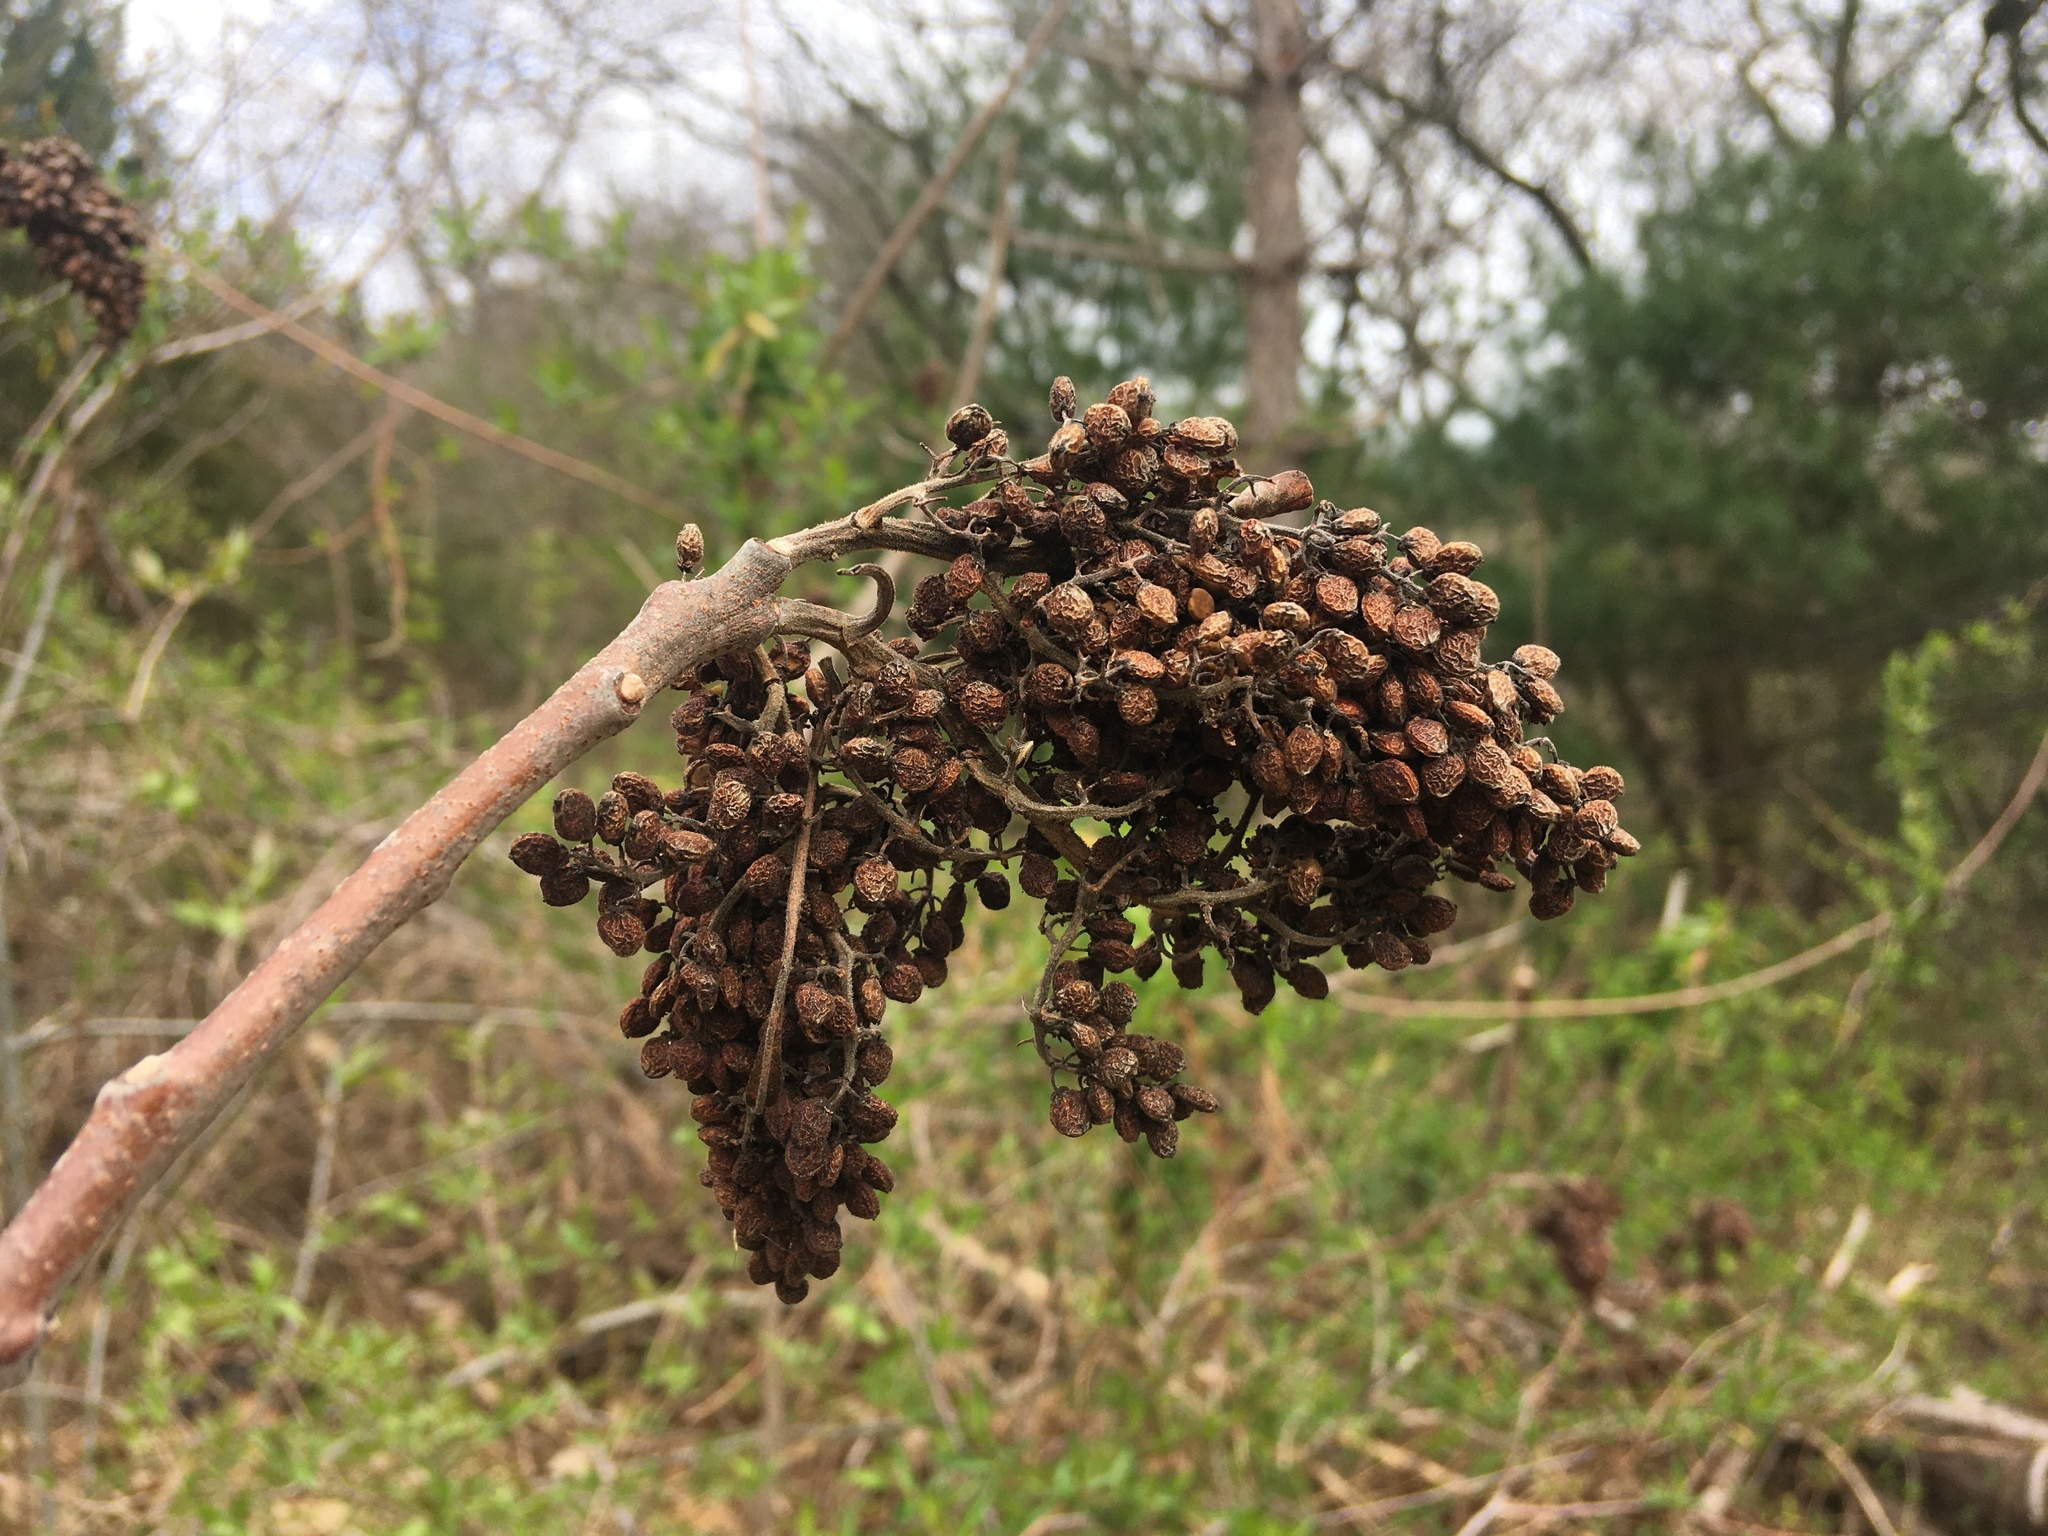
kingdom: Plantae
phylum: Tracheophyta
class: Magnoliopsida
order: Sapindales
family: Anacardiaceae
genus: Rhus
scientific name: Rhus copallina
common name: Shining sumac
